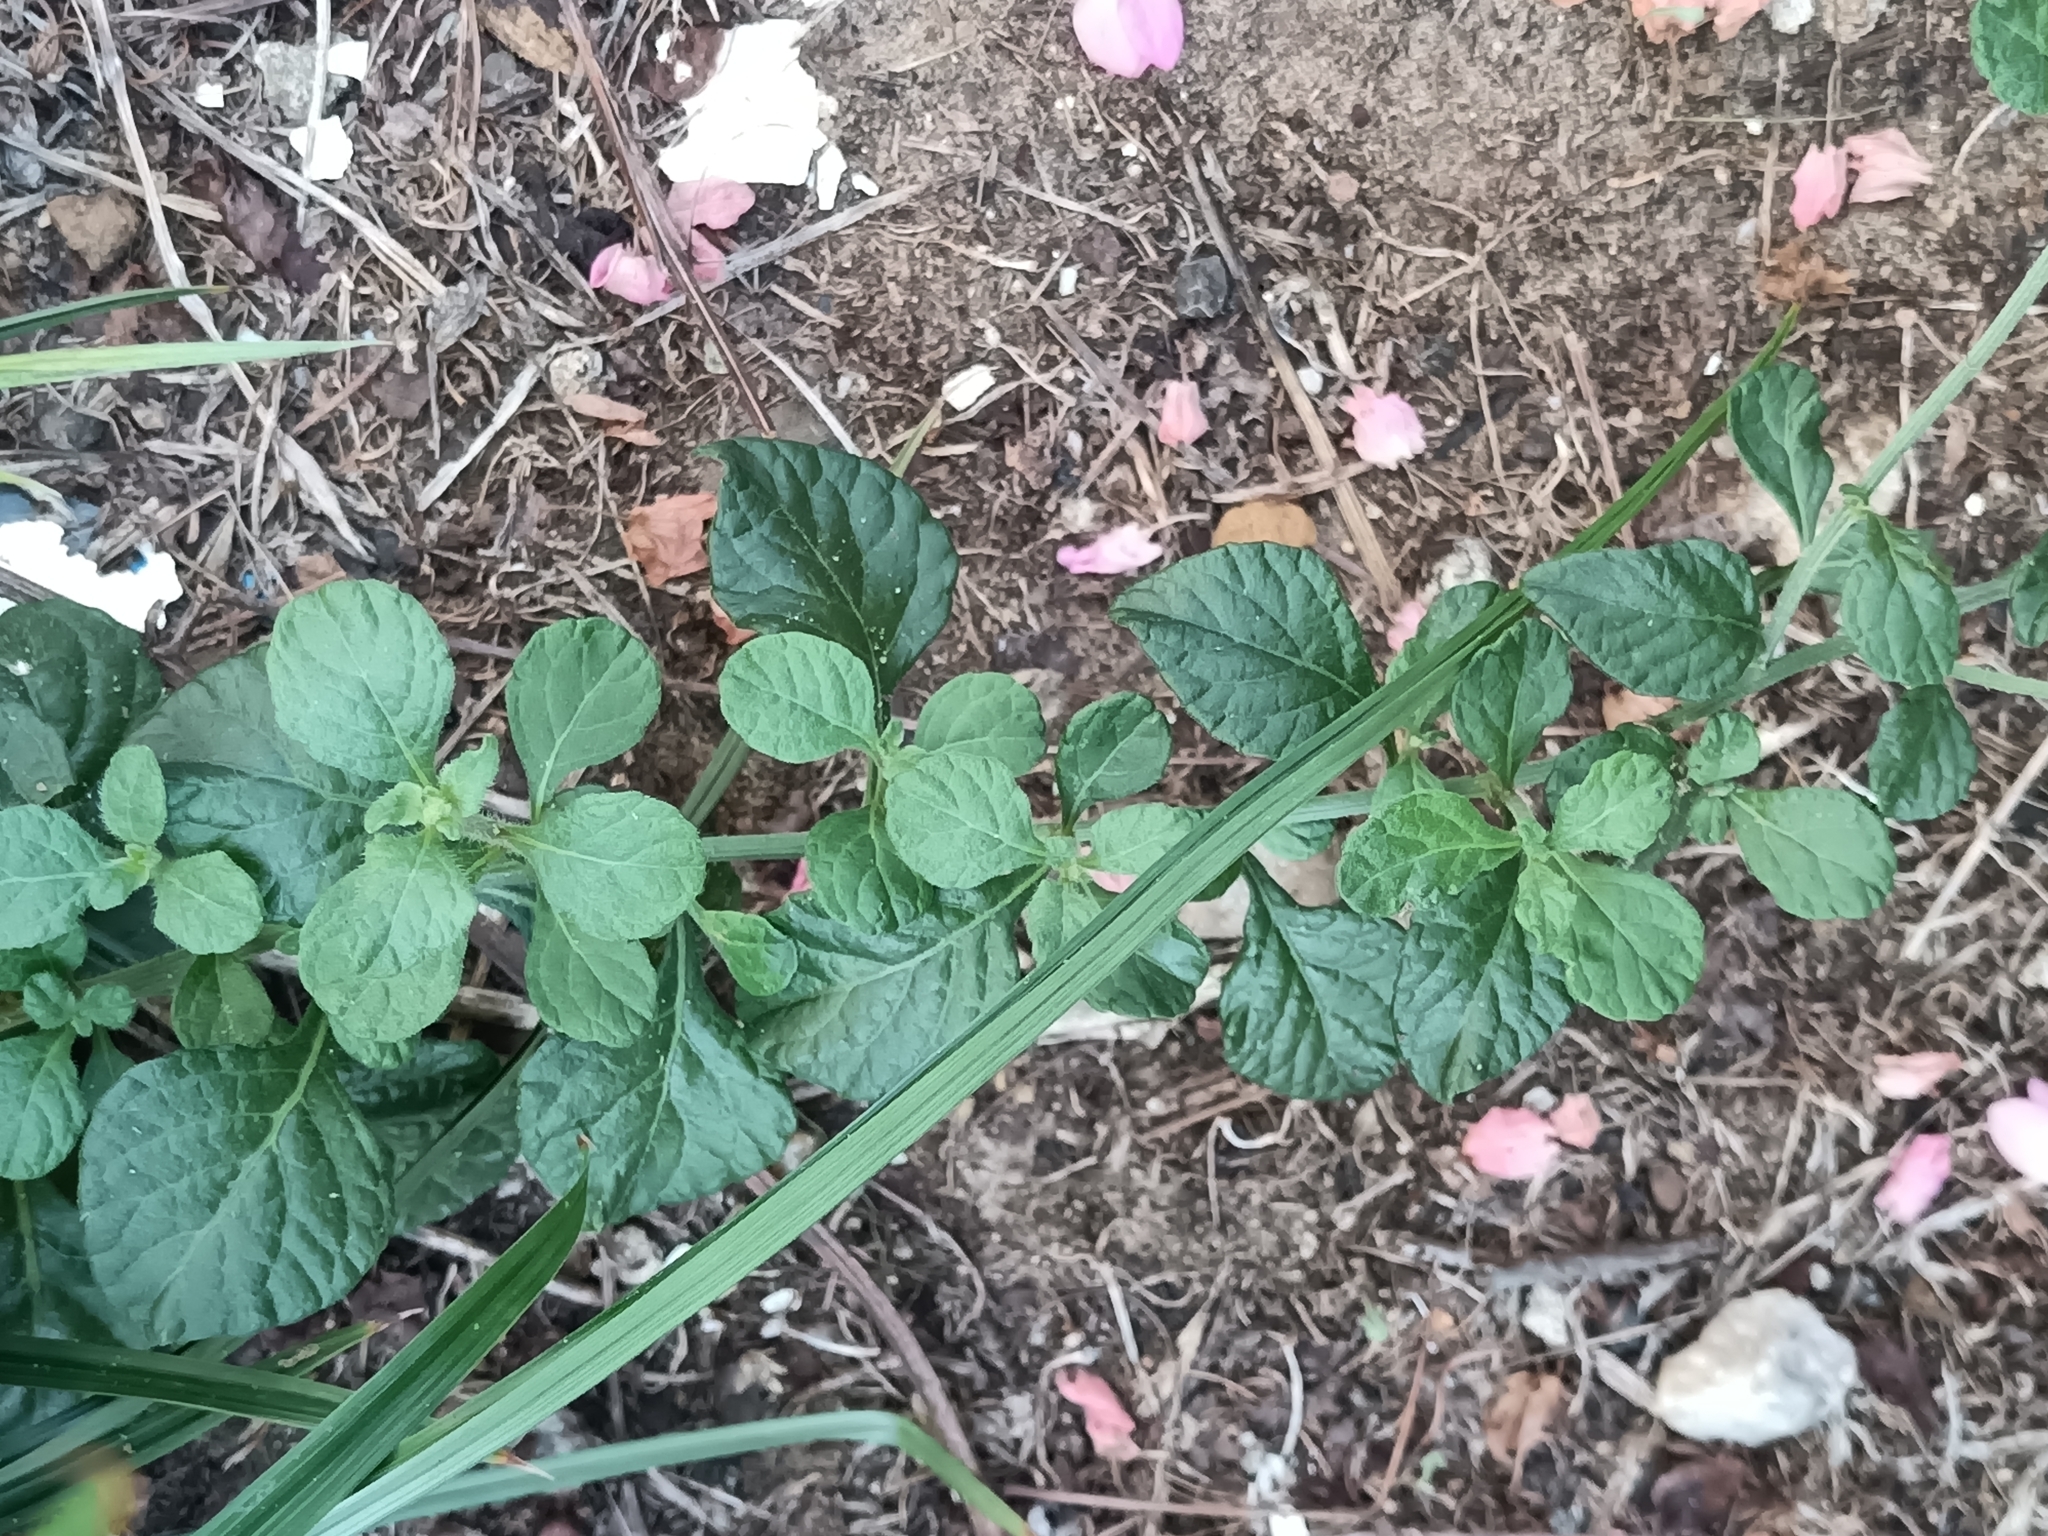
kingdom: Plantae
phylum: Tracheophyta
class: Magnoliopsida
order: Asterales
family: Asteraceae
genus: Cyanthillium
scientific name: Cyanthillium cinereum
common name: Little ironweed
